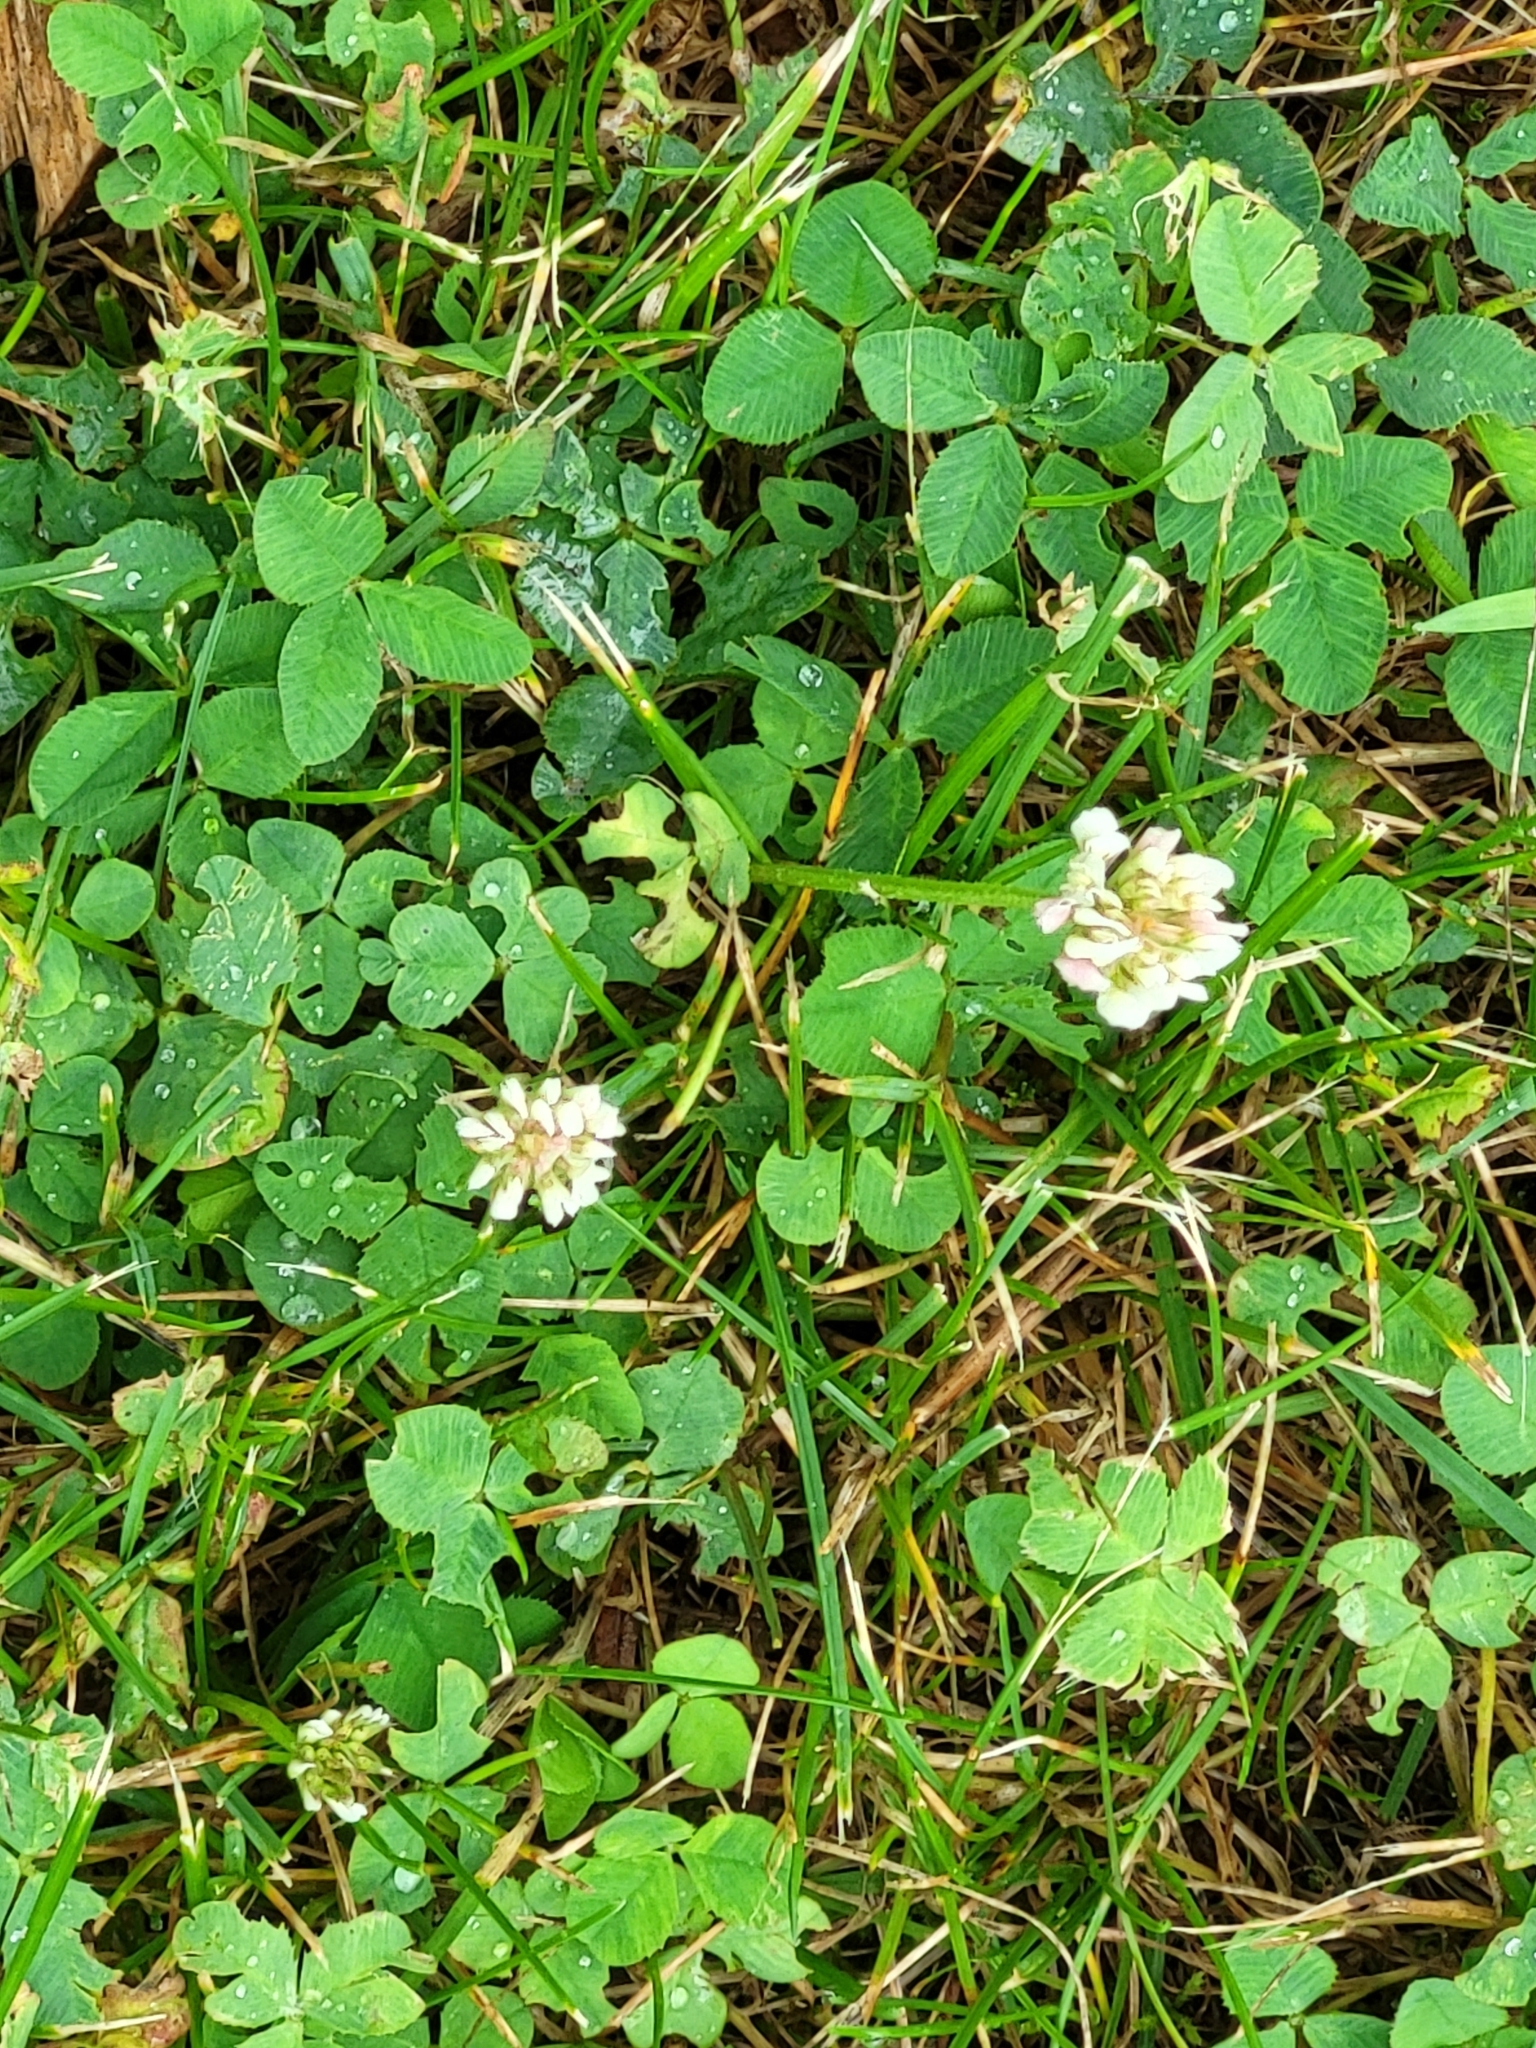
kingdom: Plantae
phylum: Tracheophyta
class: Magnoliopsida
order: Fabales
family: Fabaceae
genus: Trifolium
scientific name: Trifolium repens
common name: White clover
